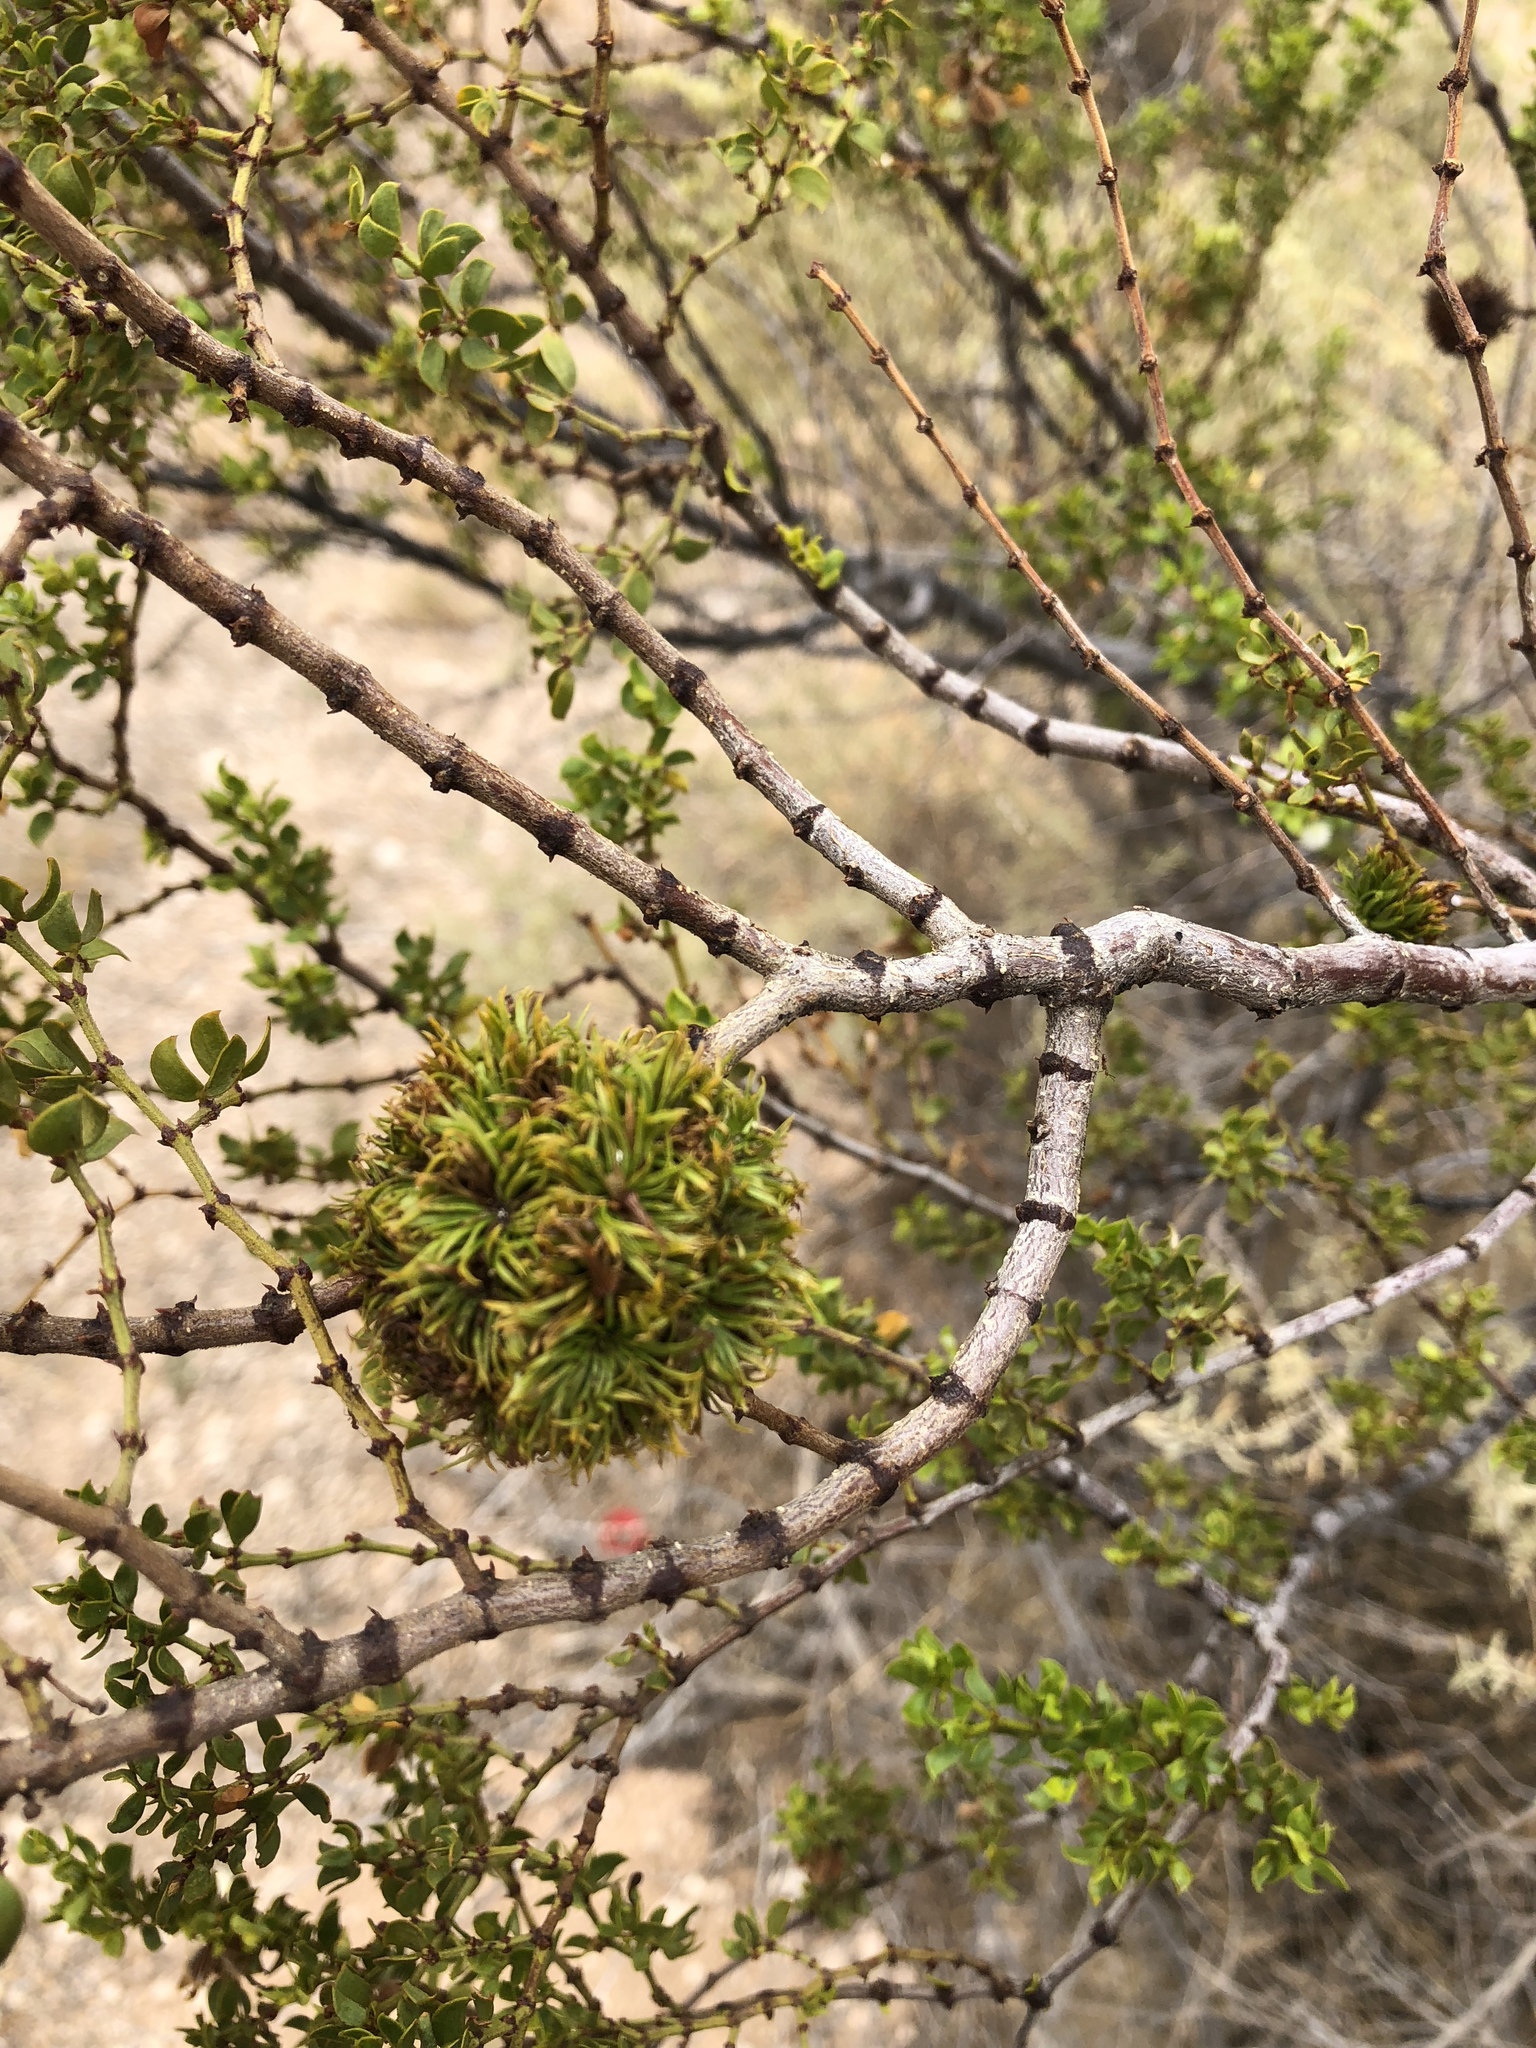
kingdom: Animalia
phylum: Arthropoda
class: Insecta
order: Diptera
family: Cecidomyiidae
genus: Asphondylia
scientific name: Asphondylia auripila
